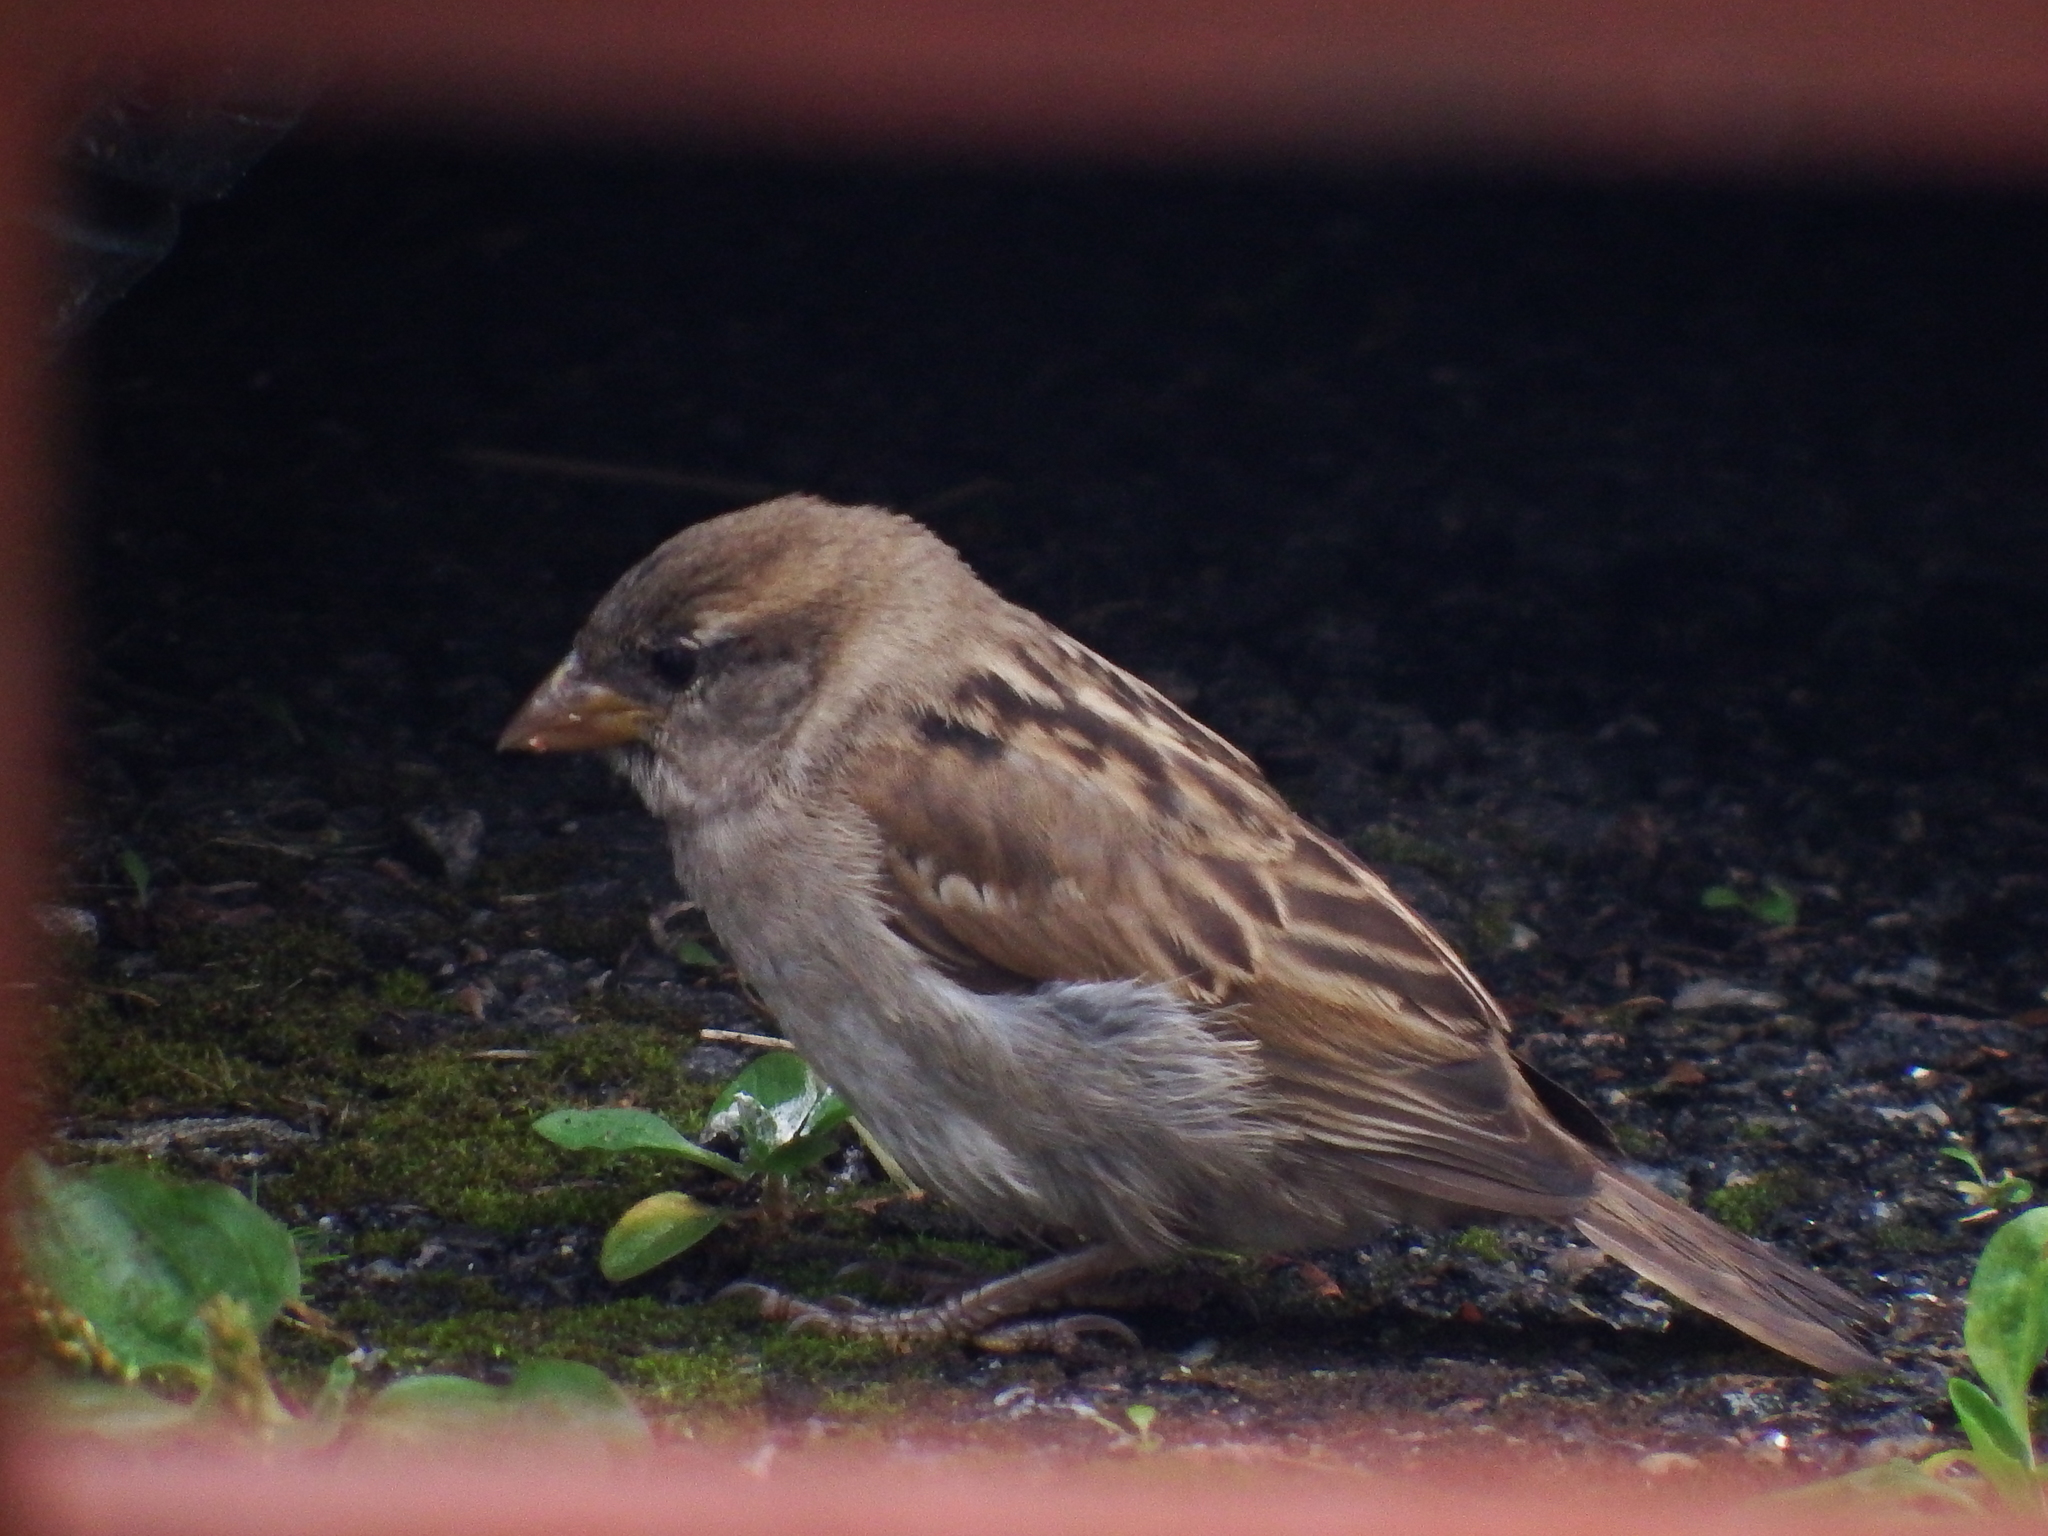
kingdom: Animalia
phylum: Chordata
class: Aves
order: Passeriformes
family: Passeridae
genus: Passer
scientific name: Passer domesticus
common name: House sparrow
